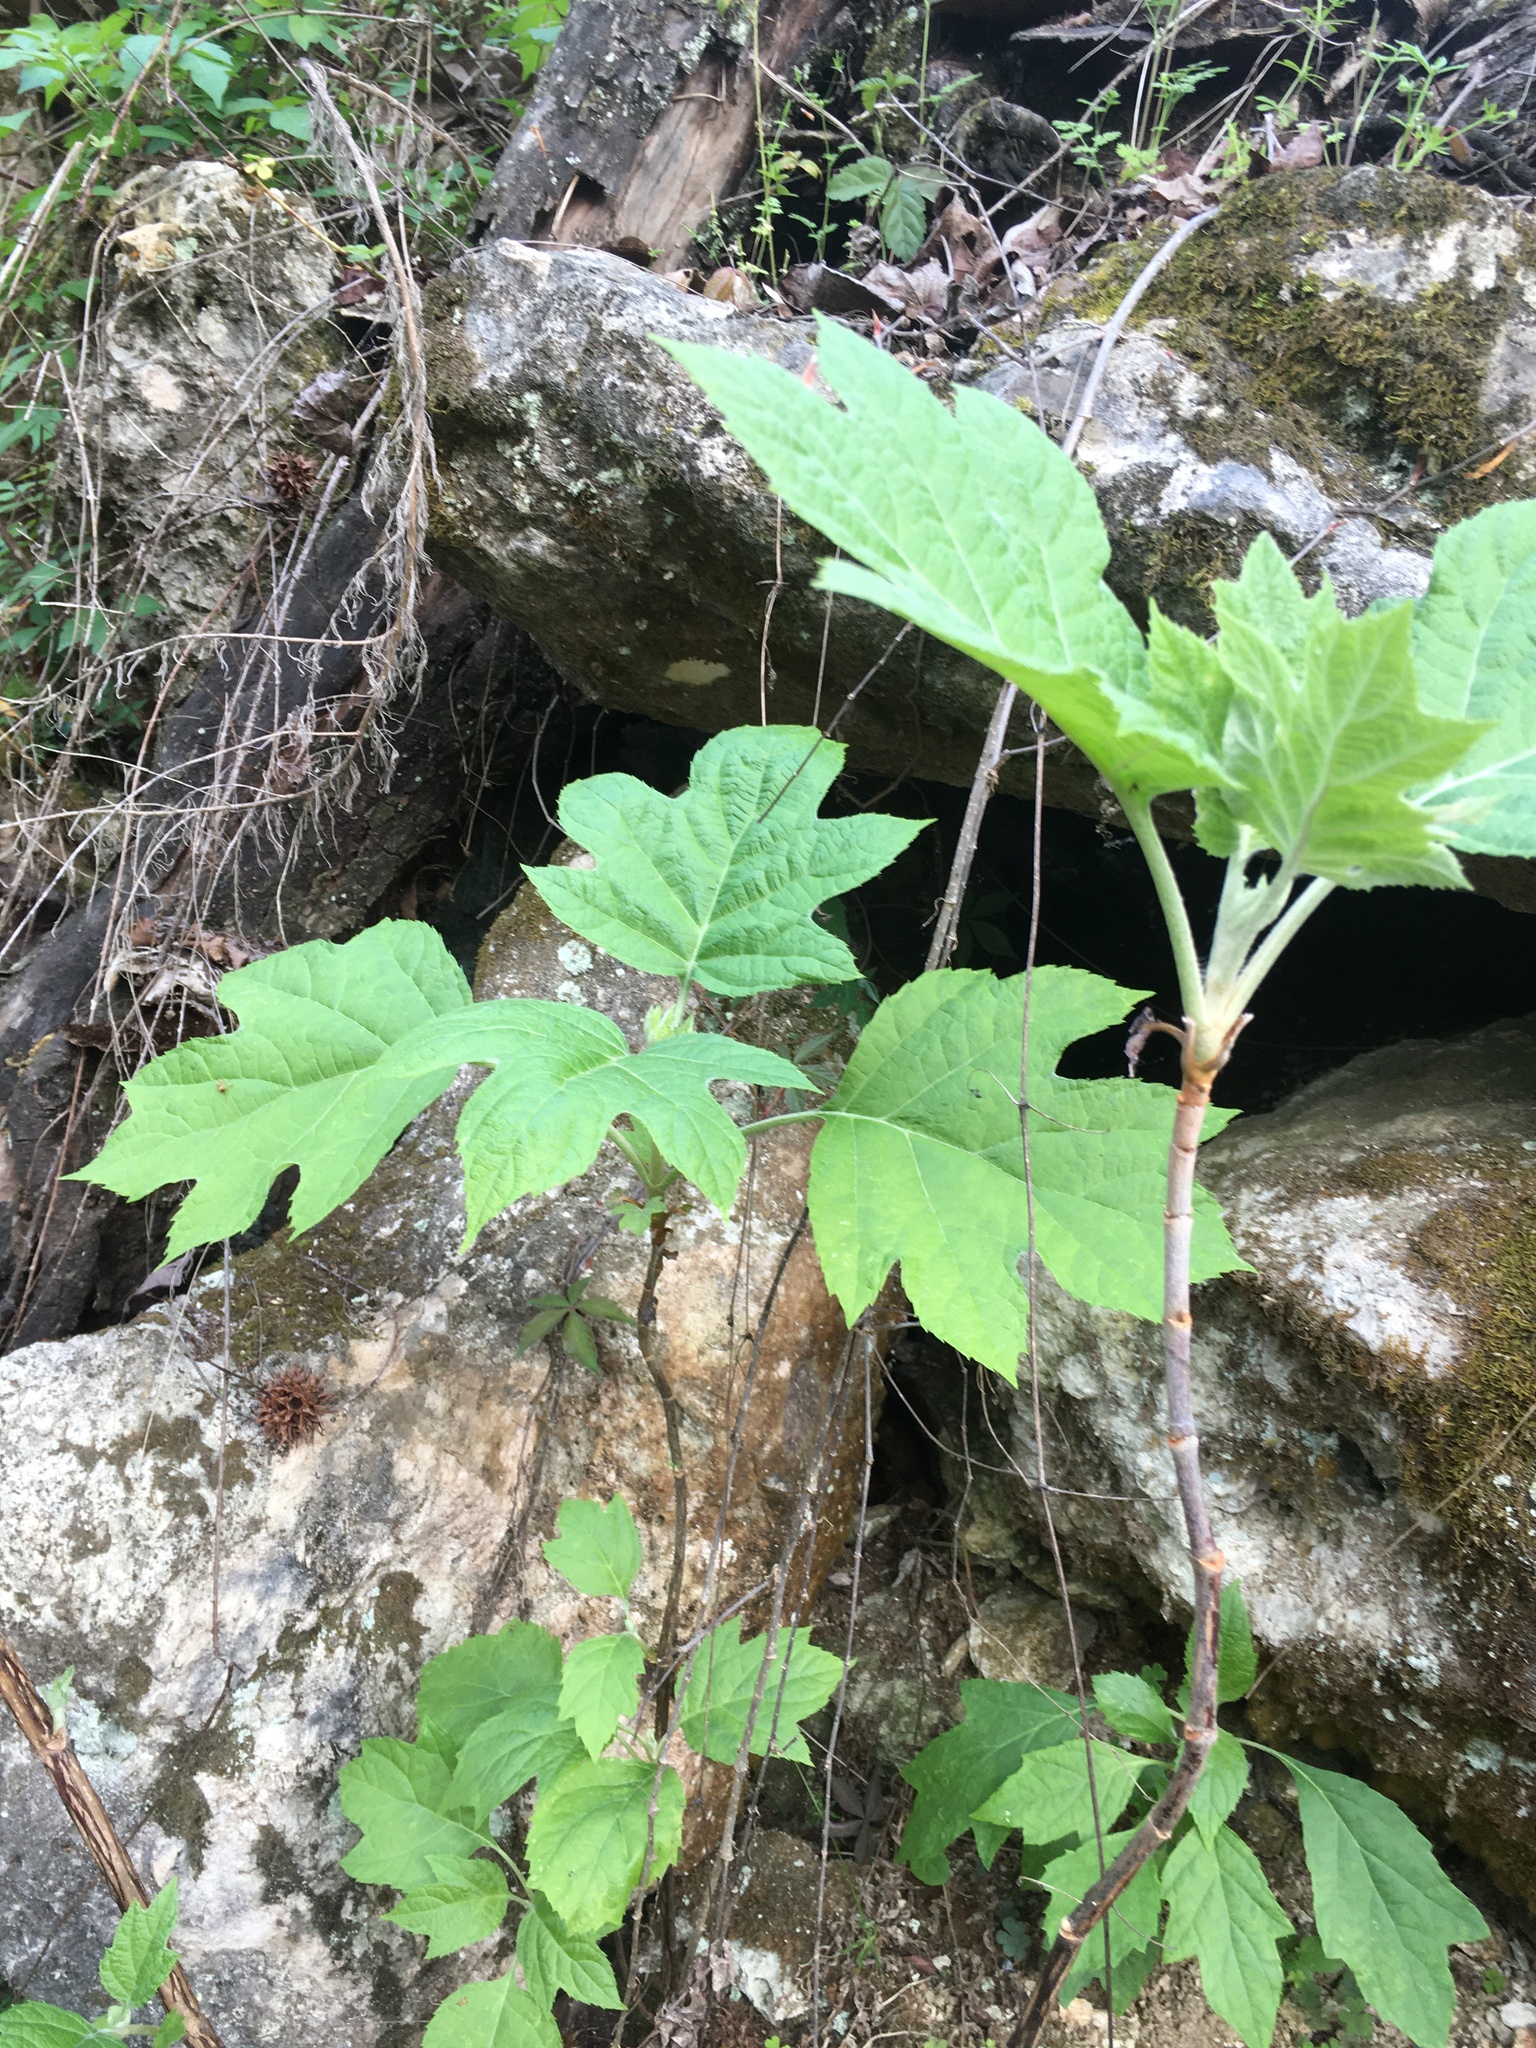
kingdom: Plantae
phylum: Tracheophyta
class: Magnoliopsida
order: Cornales
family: Hydrangeaceae
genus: Hydrangea
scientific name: Hydrangea quercifolia
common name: Oak-leaf hydrangea
